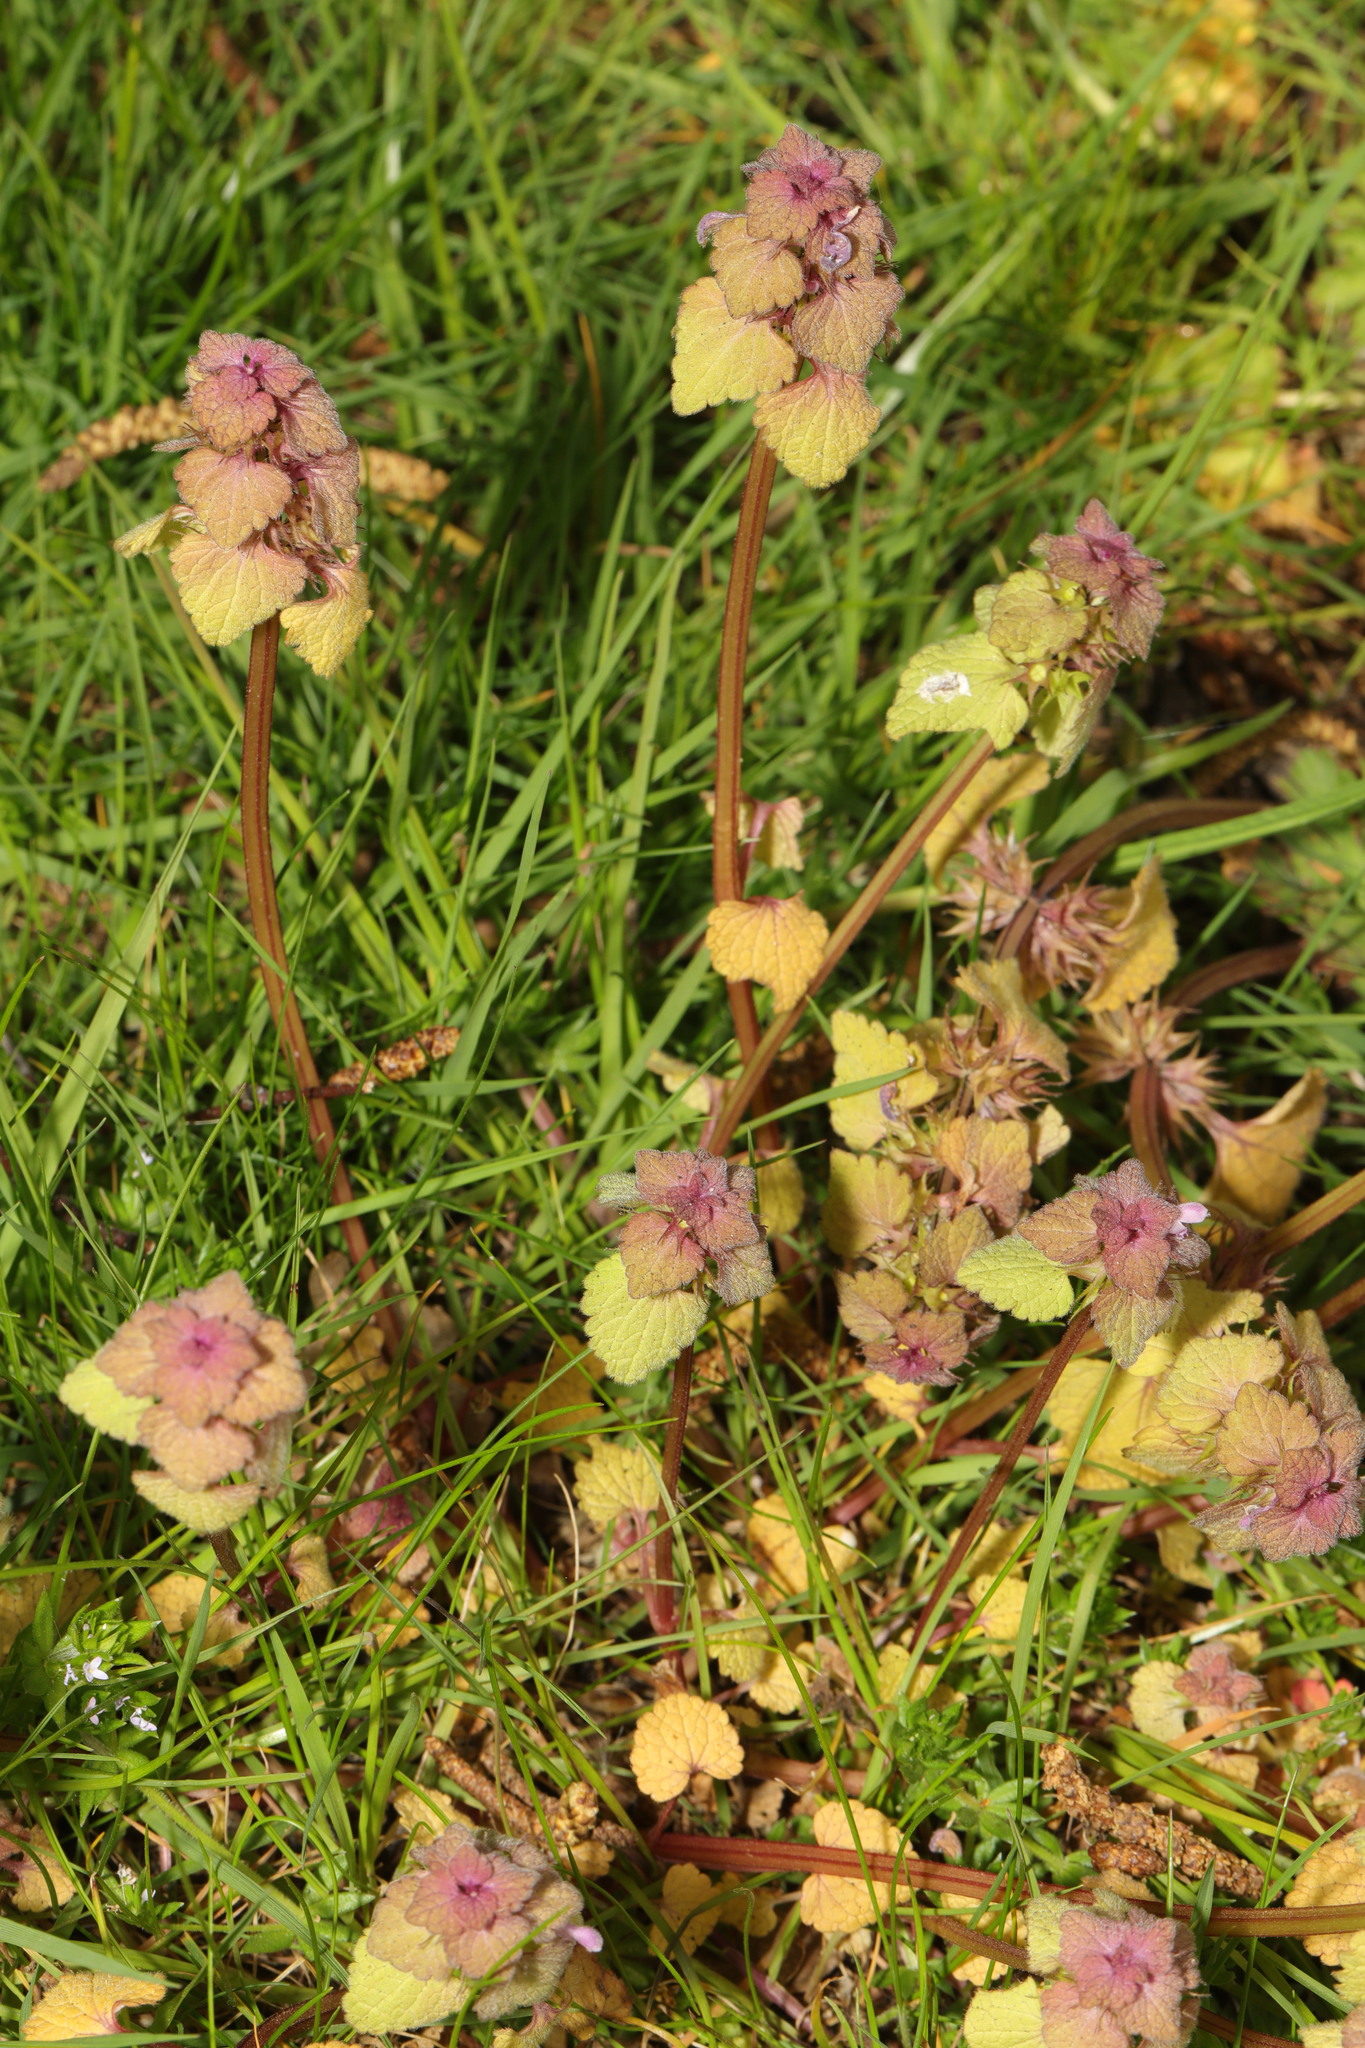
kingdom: Plantae
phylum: Tracheophyta
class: Magnoliopsida
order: Lamiales
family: Lamiaceae
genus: Lamium
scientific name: Lamium purpureum
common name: Red dead-nettle
